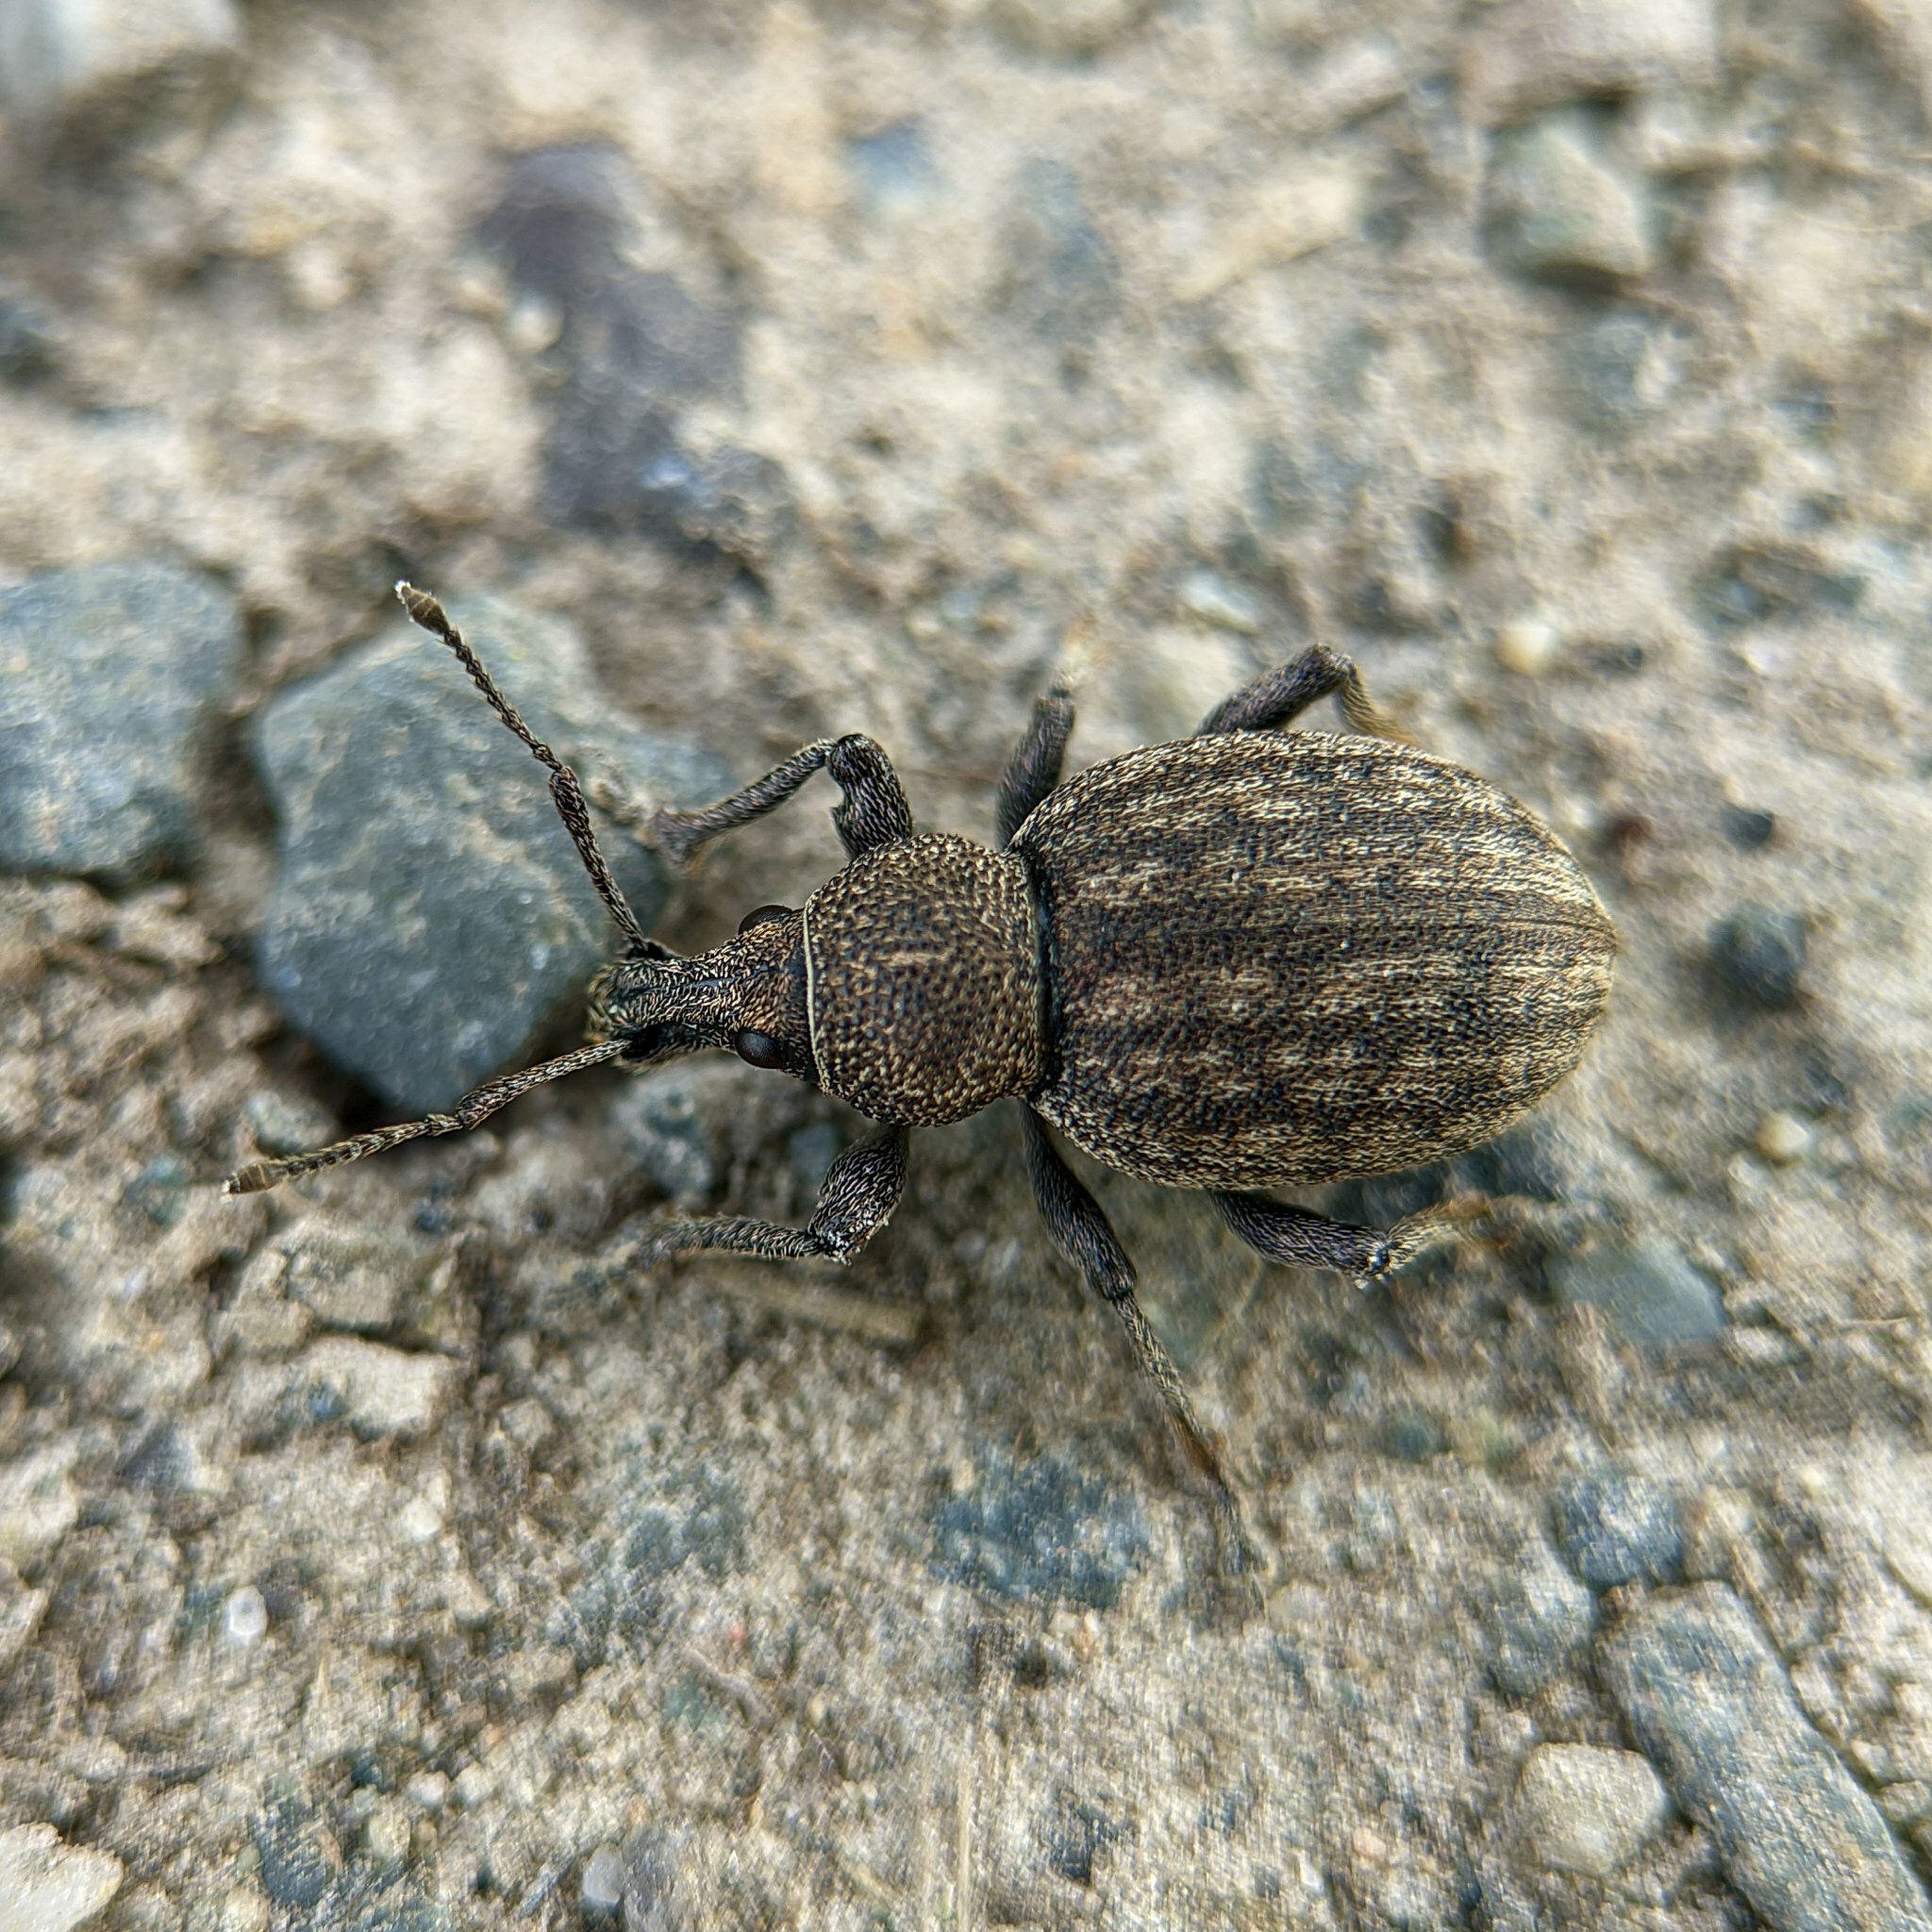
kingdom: Animalia
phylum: Arthropoda
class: Insecta
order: Coleoptera
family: Curculionidae
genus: Otiorhynchus
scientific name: Otiorhynchus ligustici
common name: Weevil
